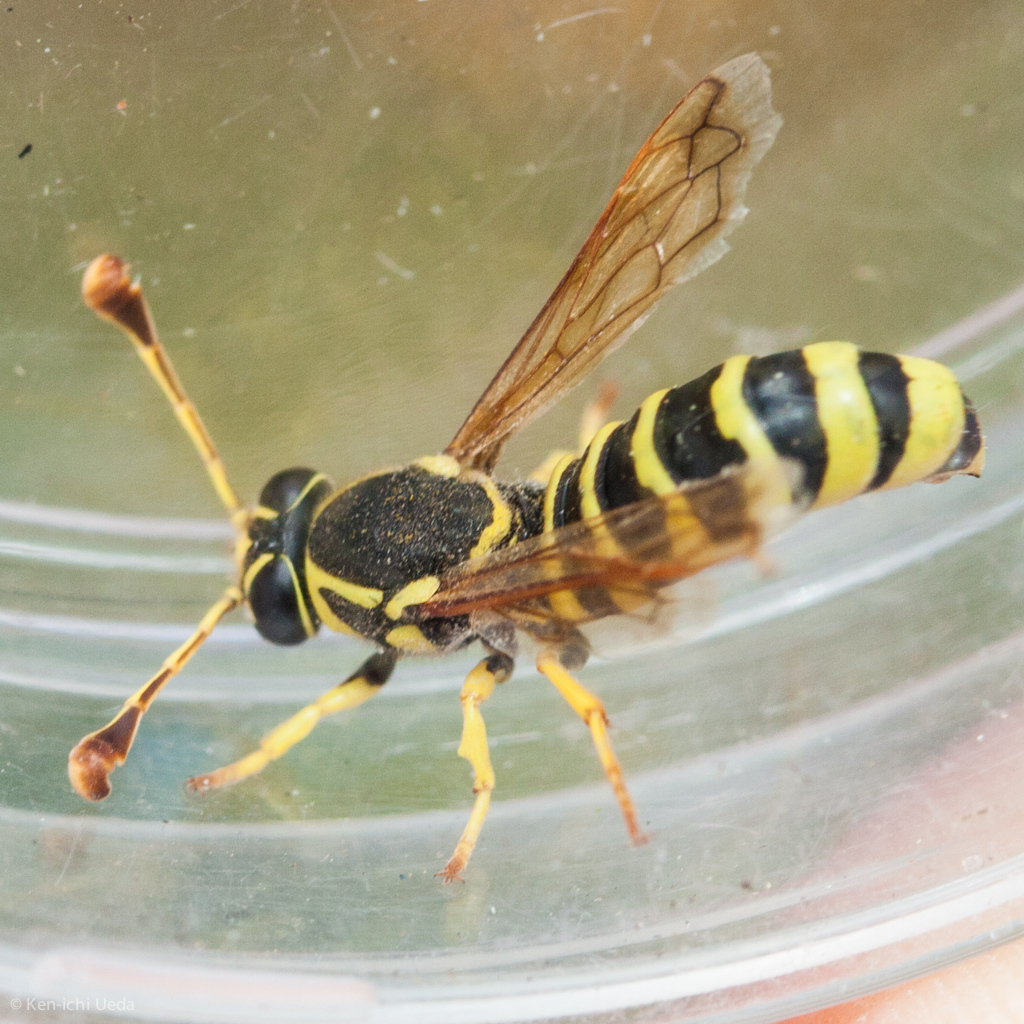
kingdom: Animalia
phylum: Arthropoda
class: Insecta
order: Hymenoptera
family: Masaridae
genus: Pseudomasaris
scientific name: Pseudomasaris edwardsi
